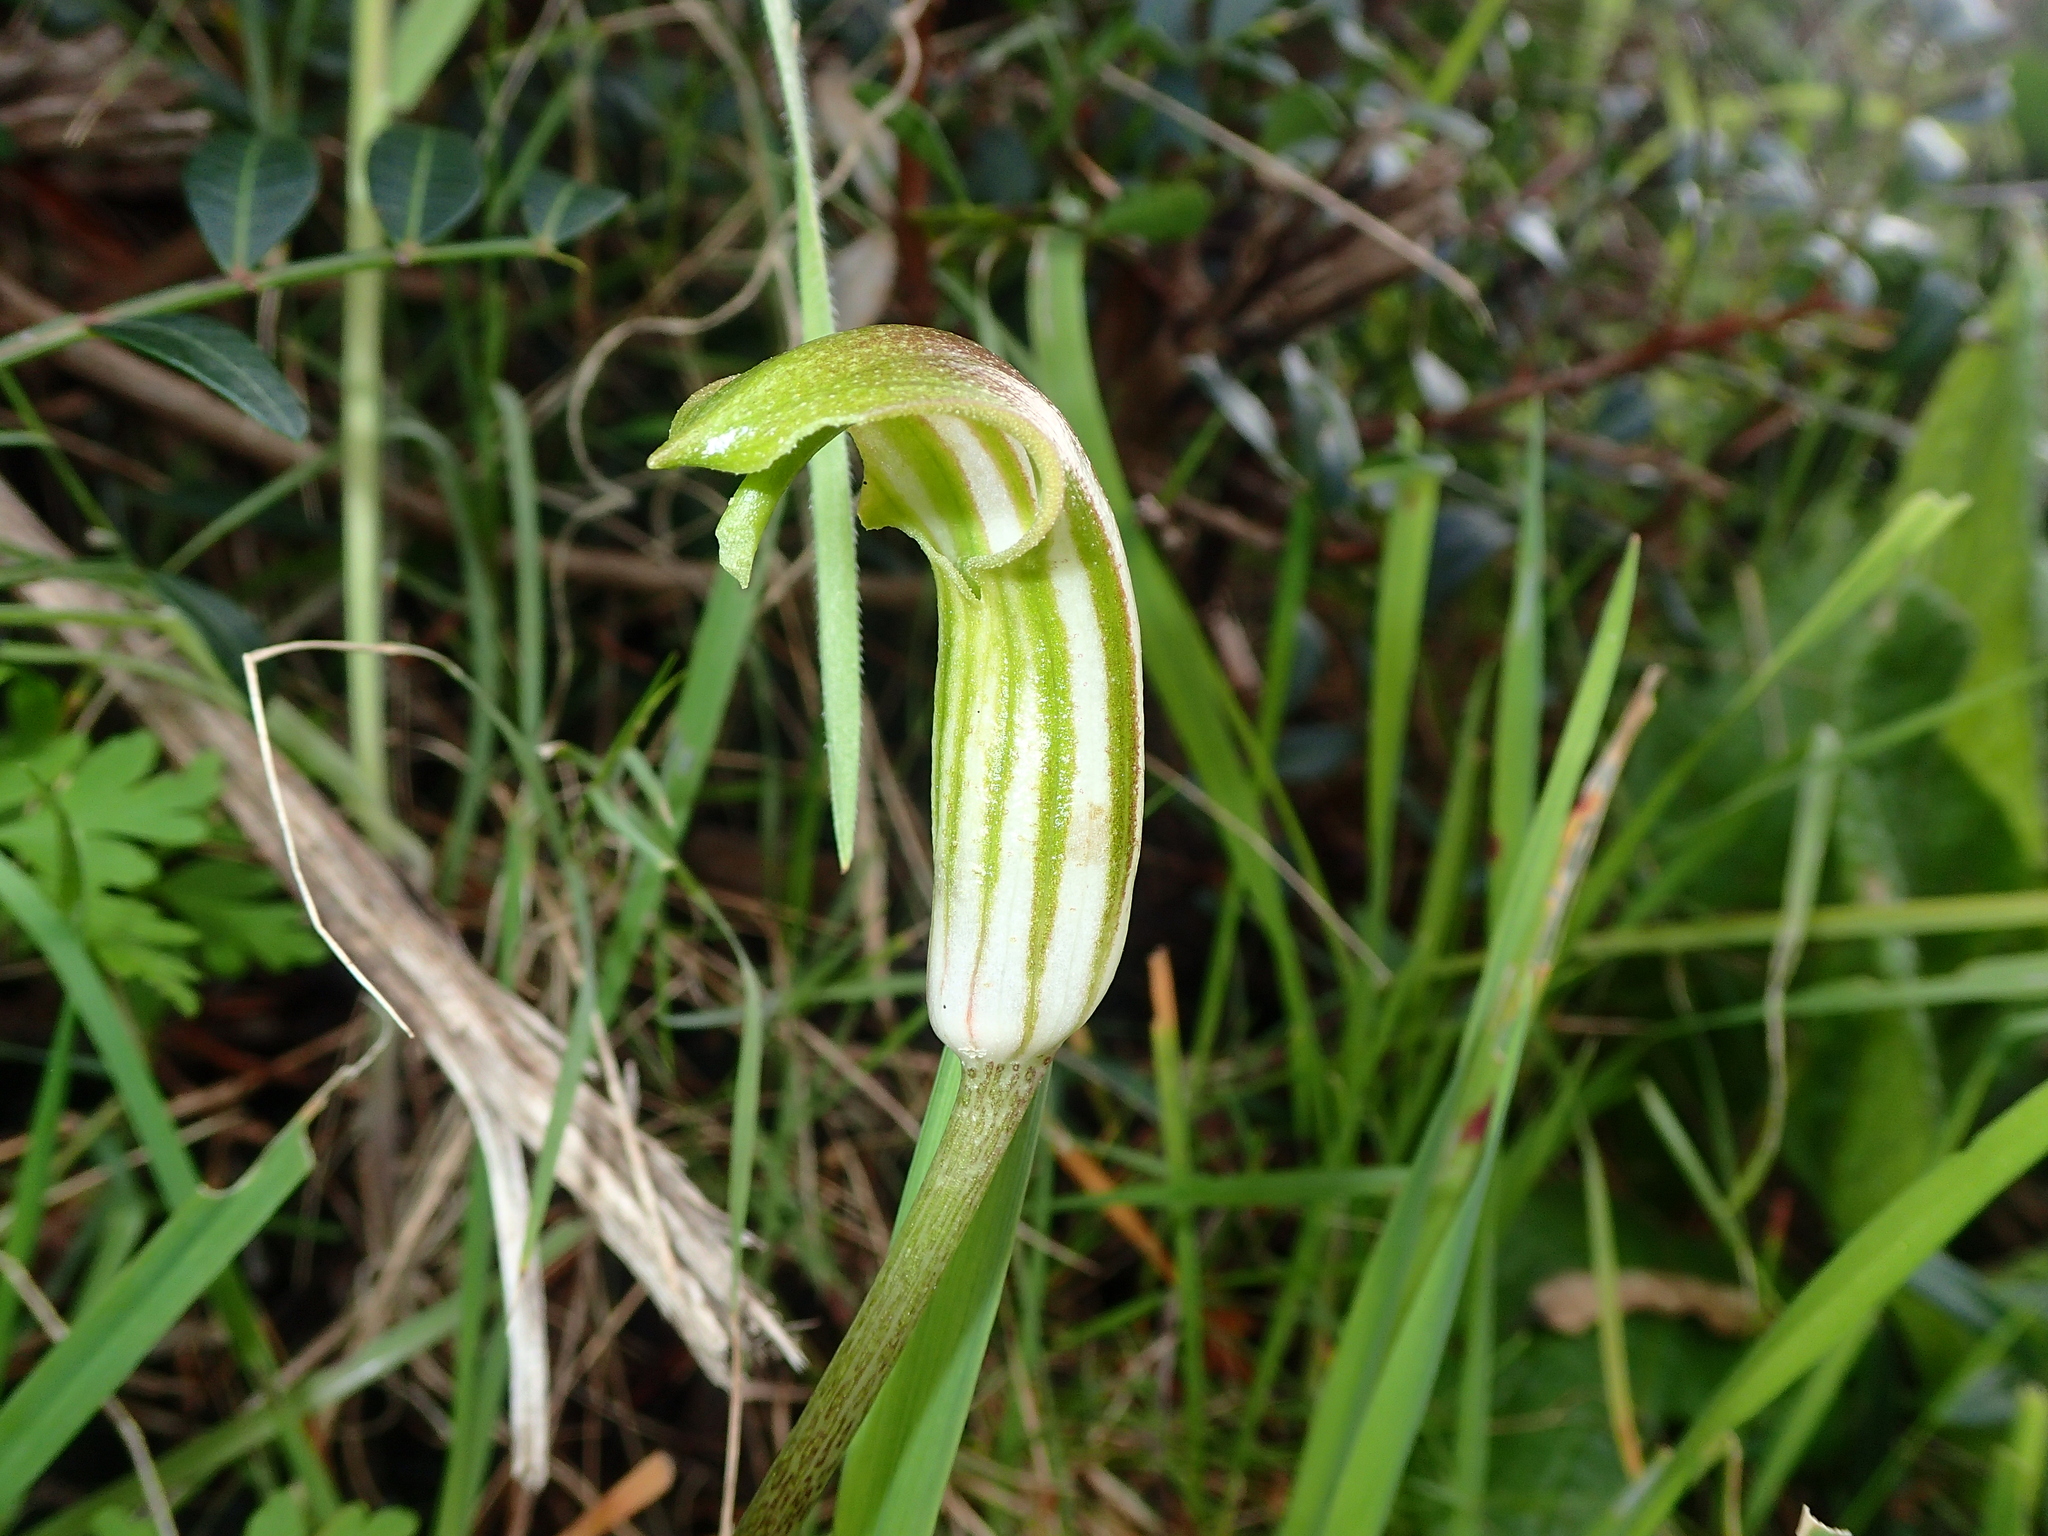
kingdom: Plantae
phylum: Tracheophyta
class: Liliopsida
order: Alismatales
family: Araceae
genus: Arisarum
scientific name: Arisarum vulgare
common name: Common arisarum
